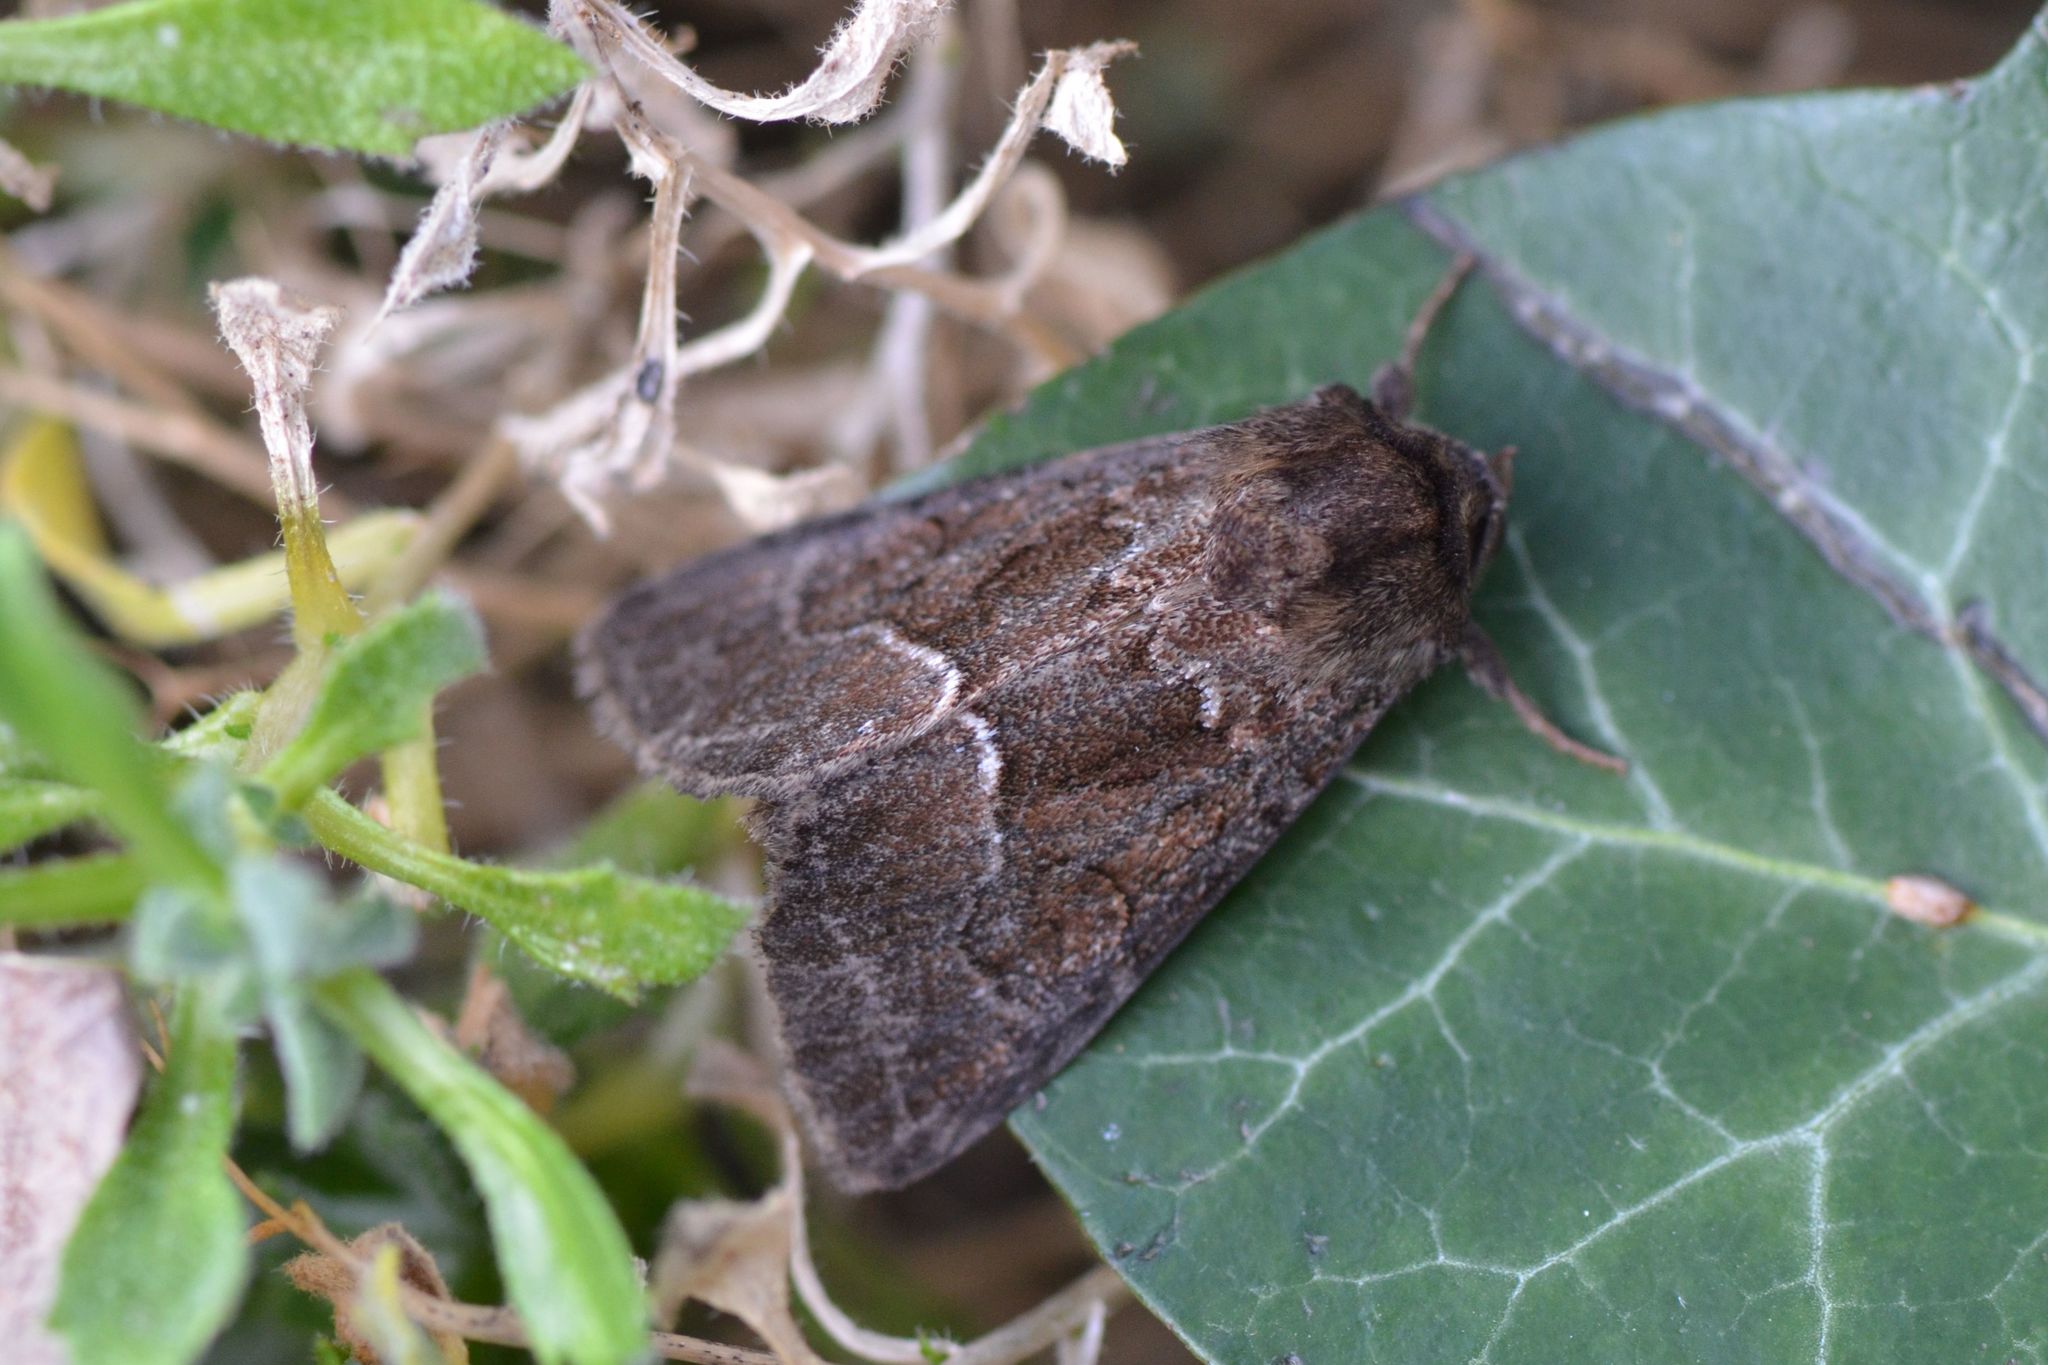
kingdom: Animalia
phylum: Arthropoda
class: Insecta
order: Lepidoptera
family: Noctuidae
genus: Thalpophila
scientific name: Thalpophila matura
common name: Straw underwing
